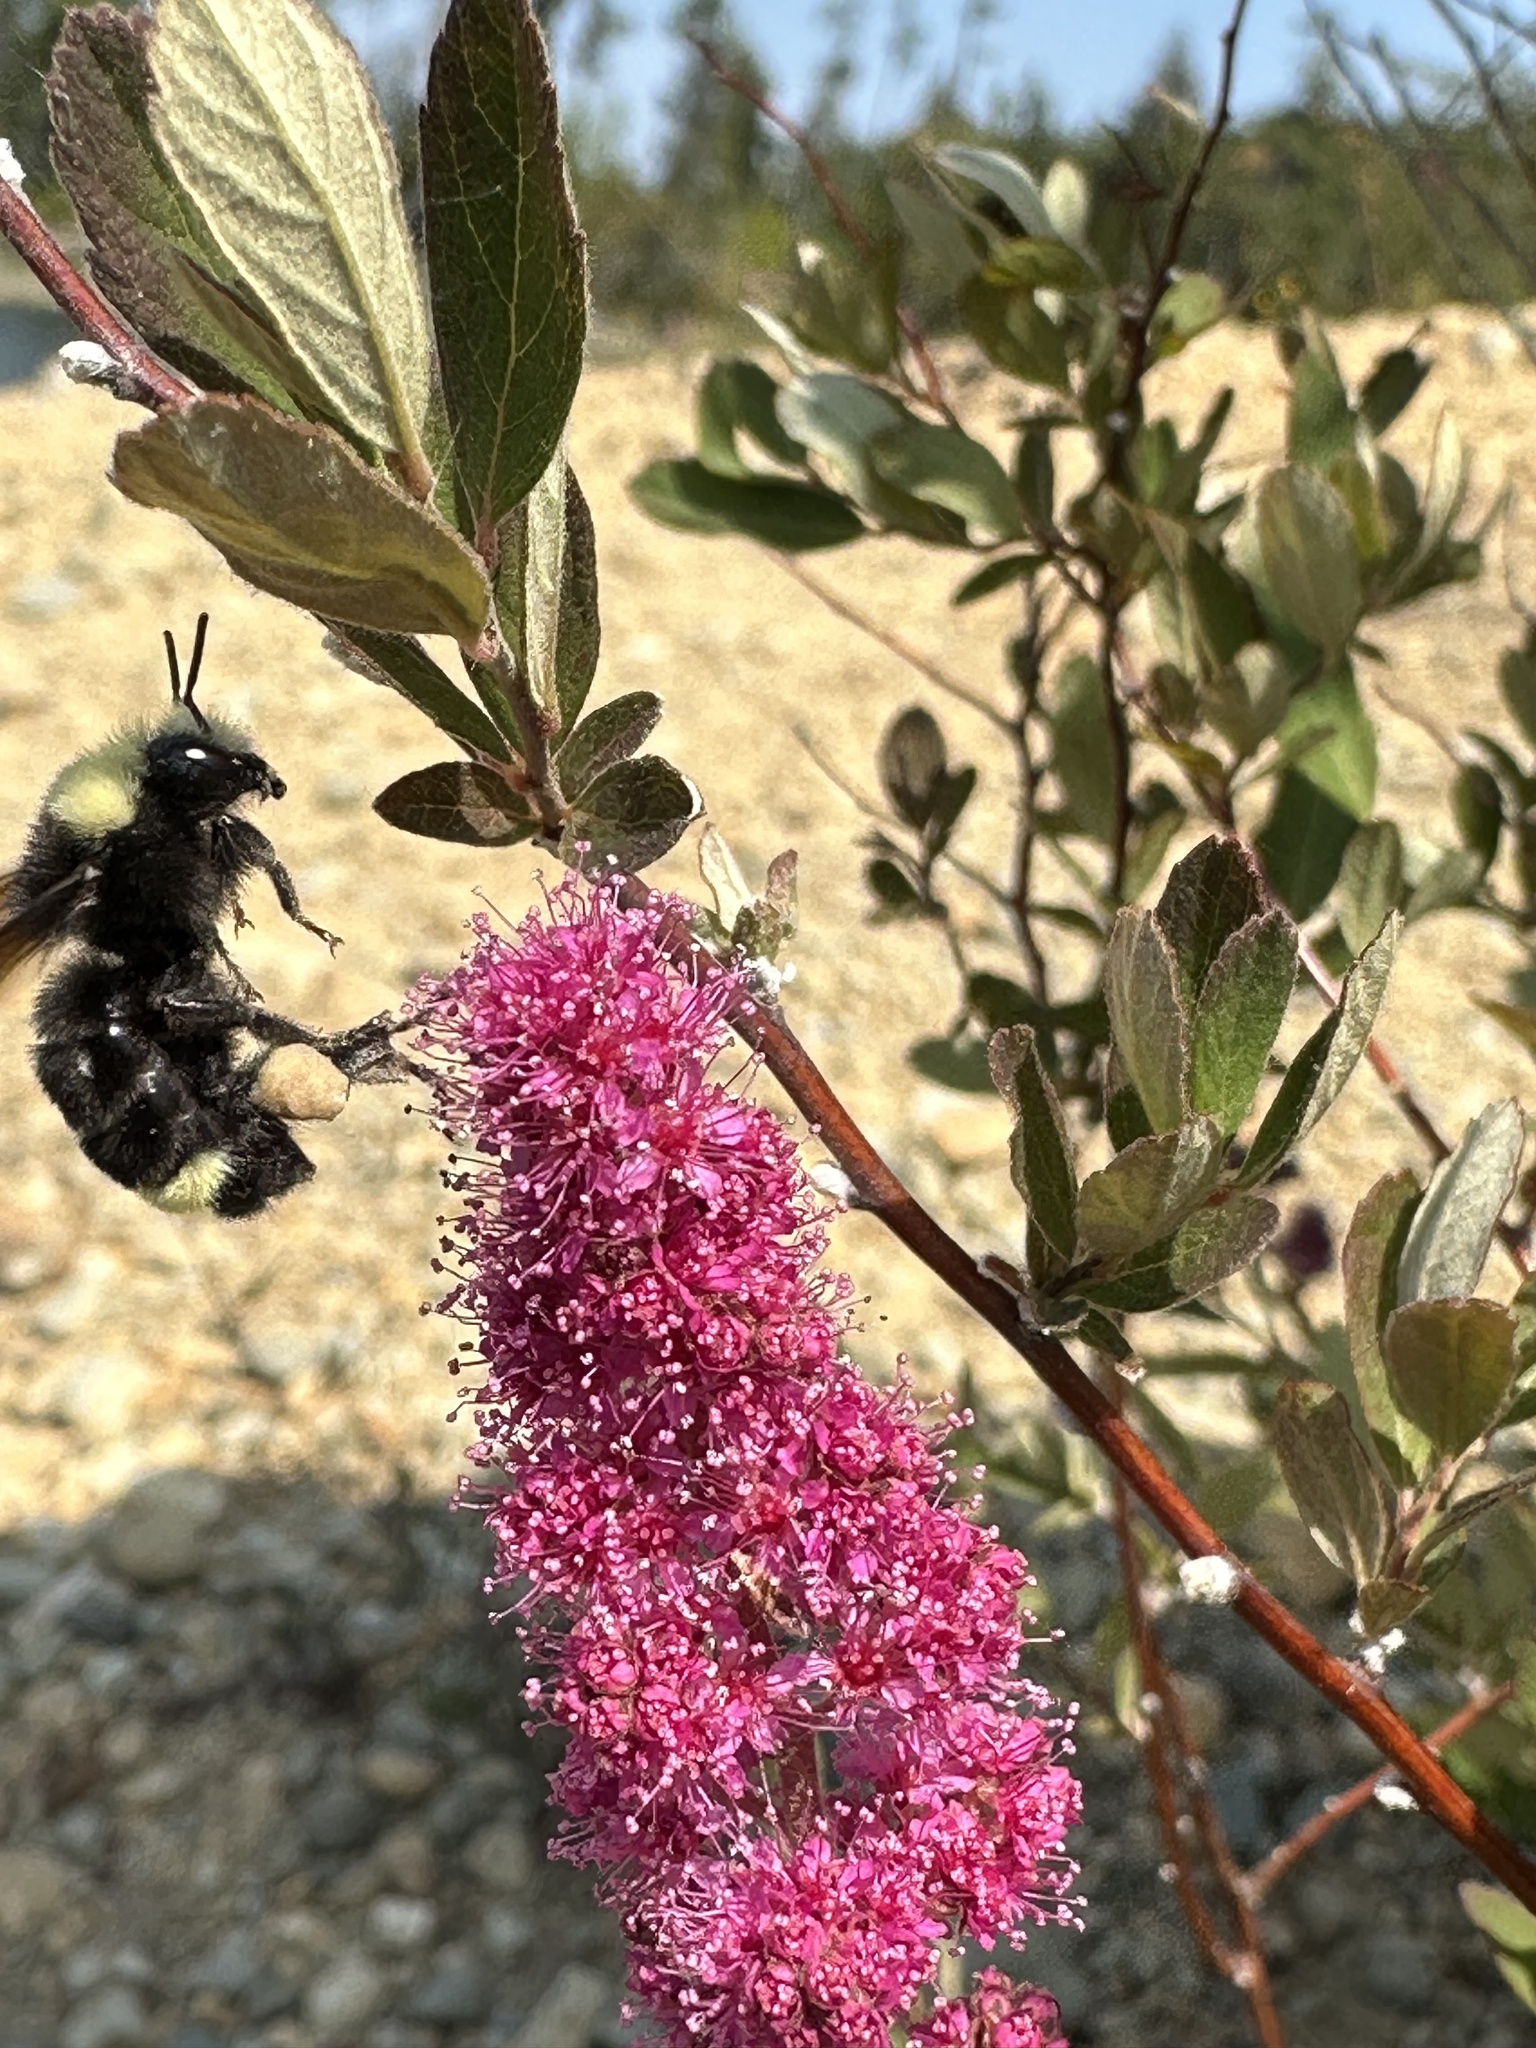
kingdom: Animalia
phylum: Arthropoda
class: Insecta
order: Hymenoptera
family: Apidae
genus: Bombus
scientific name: Bombus vosnesenskii
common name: Vosnesensky bumble bee
